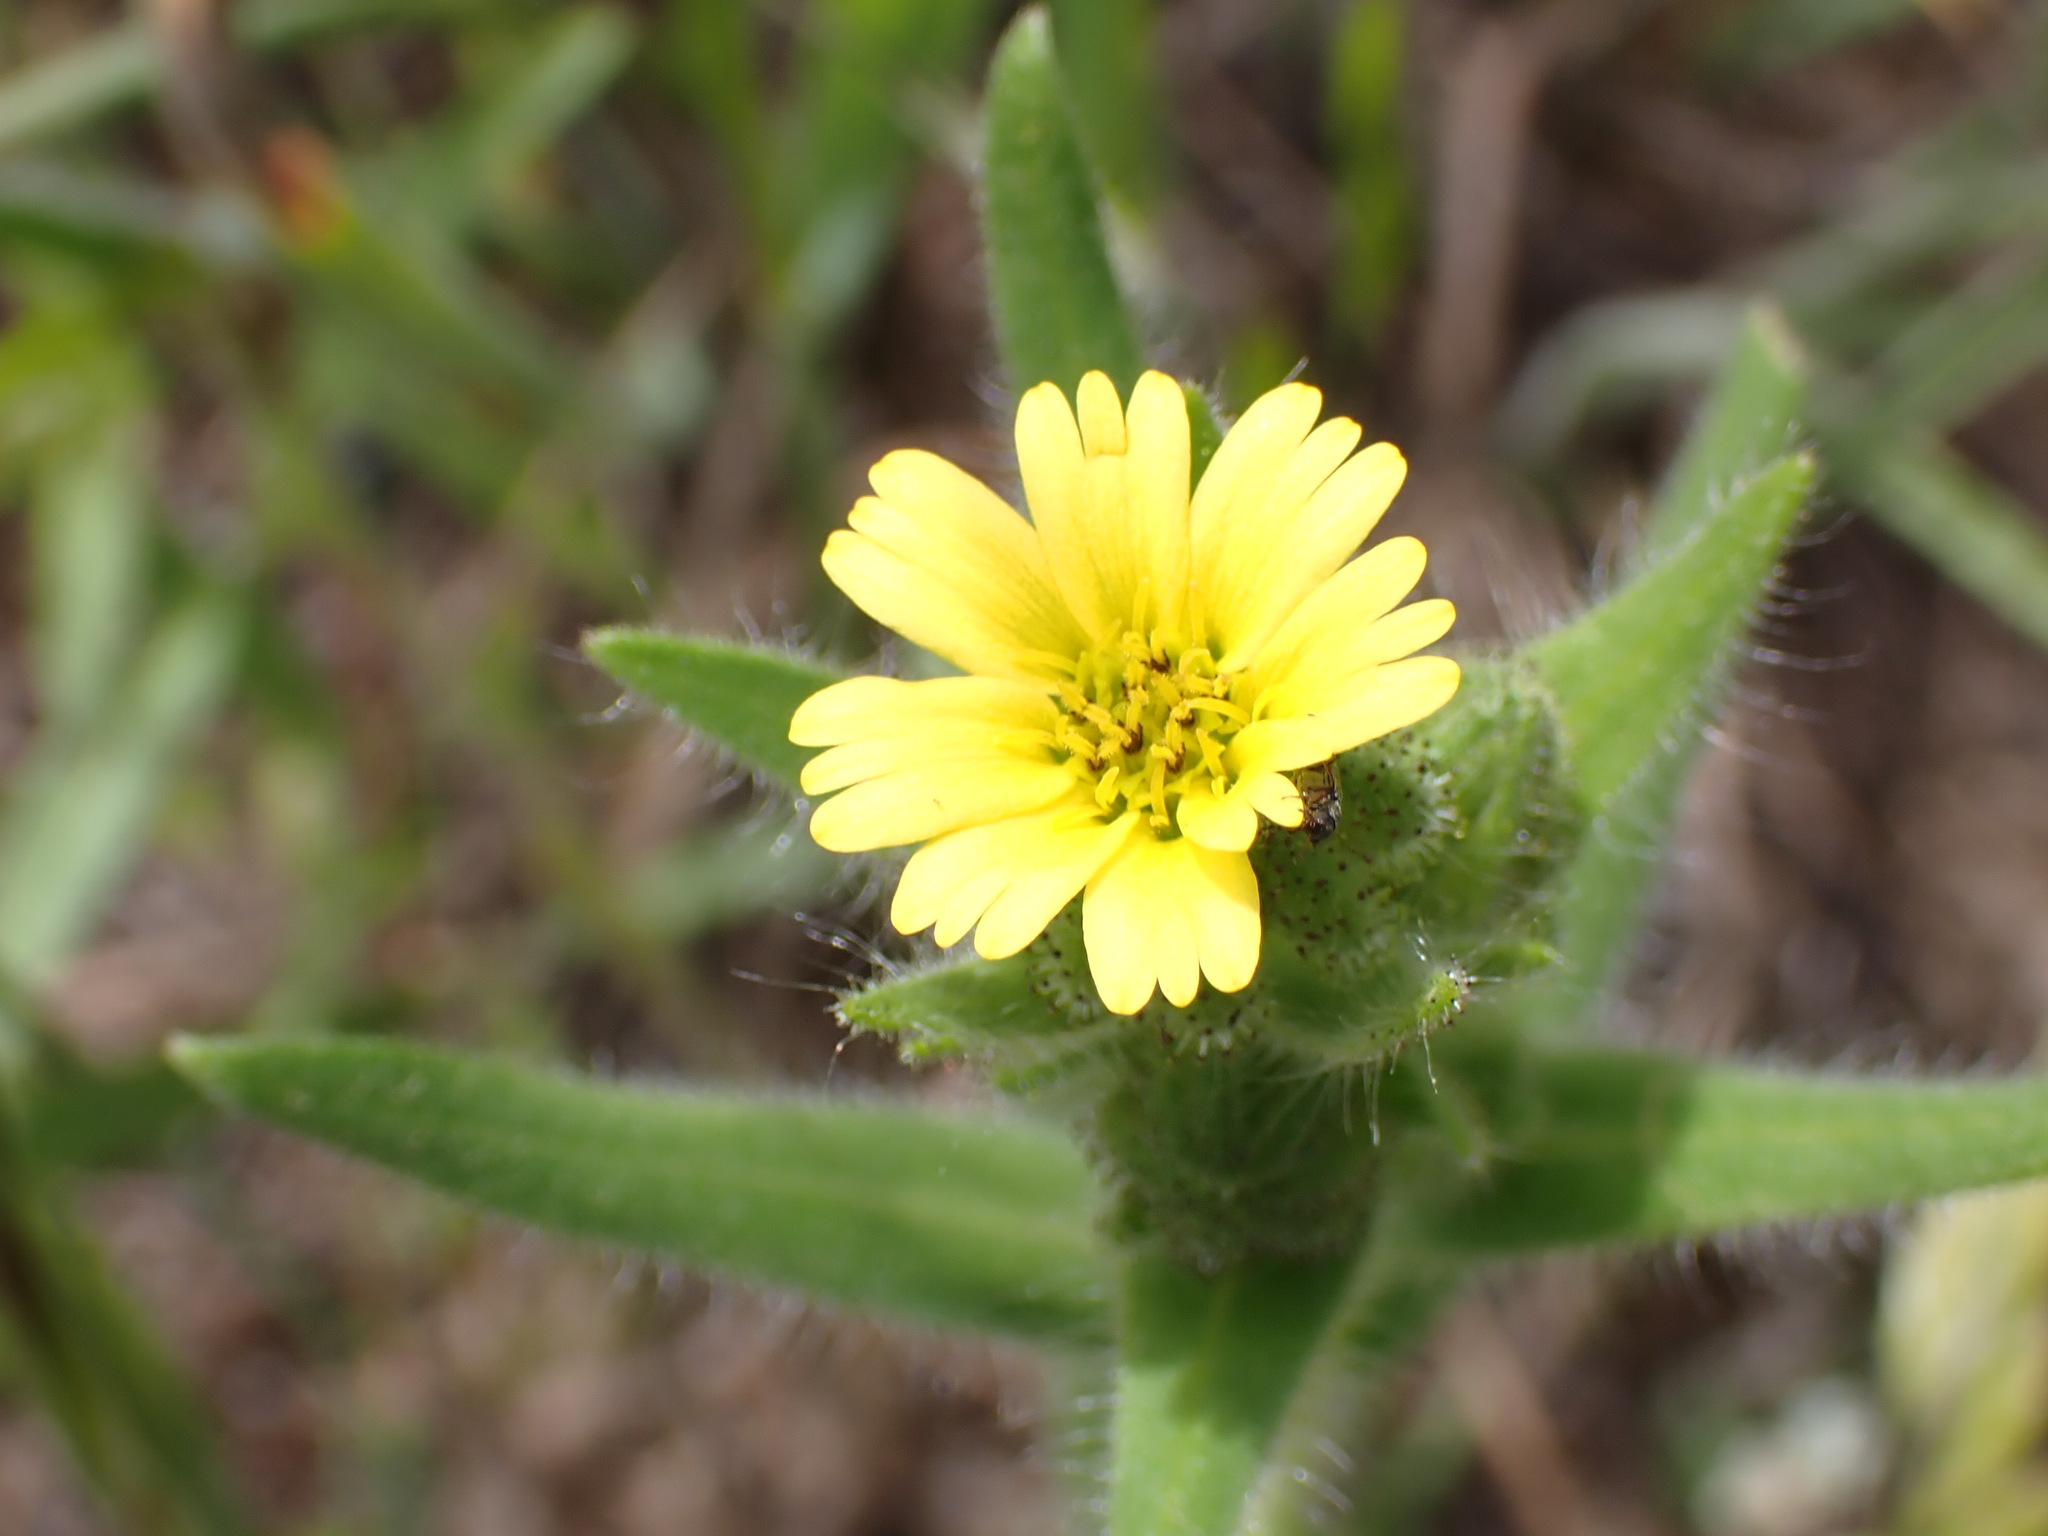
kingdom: Plantae
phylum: Tracheophyta
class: Magnoliopsida
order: Asterales
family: Asteraceae
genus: Madia
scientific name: Madia gracilis
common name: Grassy tarweed
